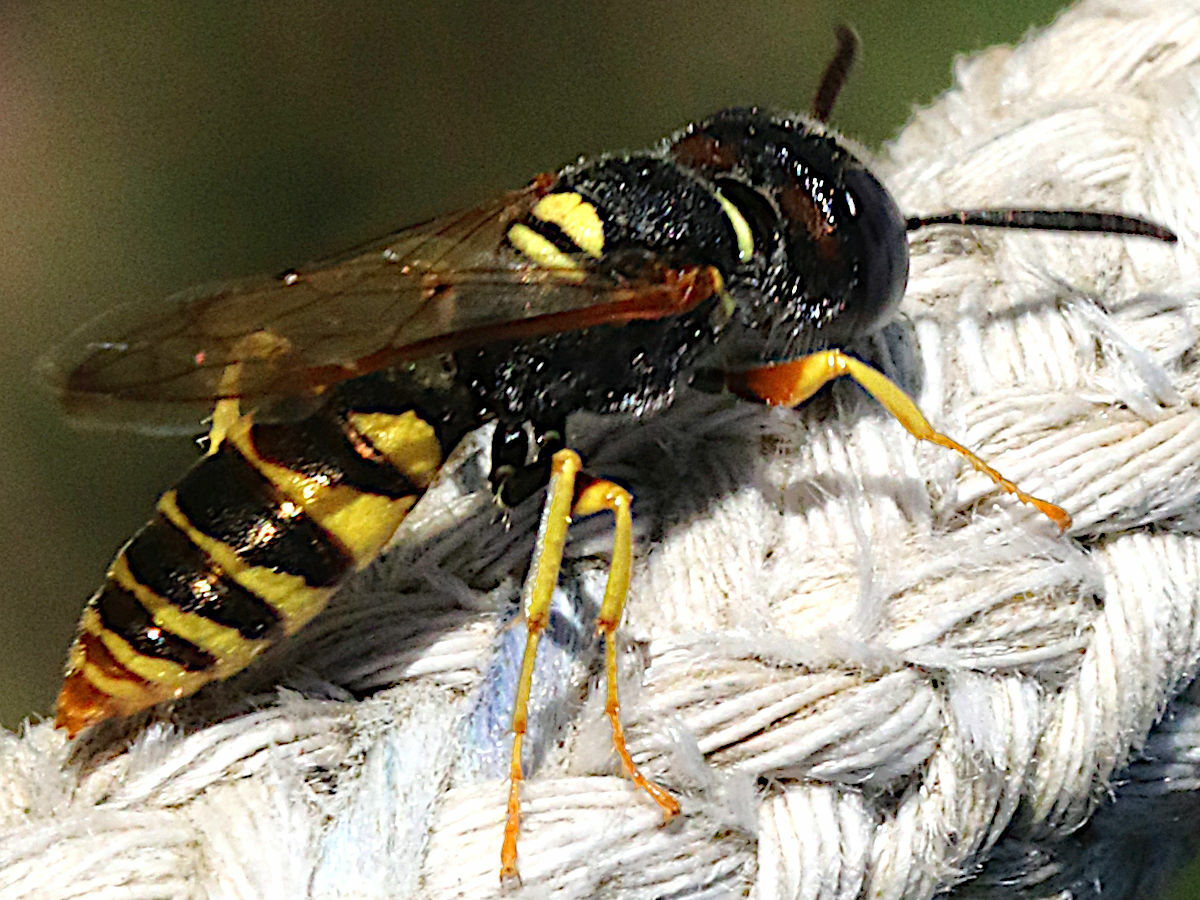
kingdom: Animalia
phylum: Arthropoda
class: Insecta
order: Hymenoptera
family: Crabronidae
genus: Philanthus
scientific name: Philanthus triangulum
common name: Bee wolf
